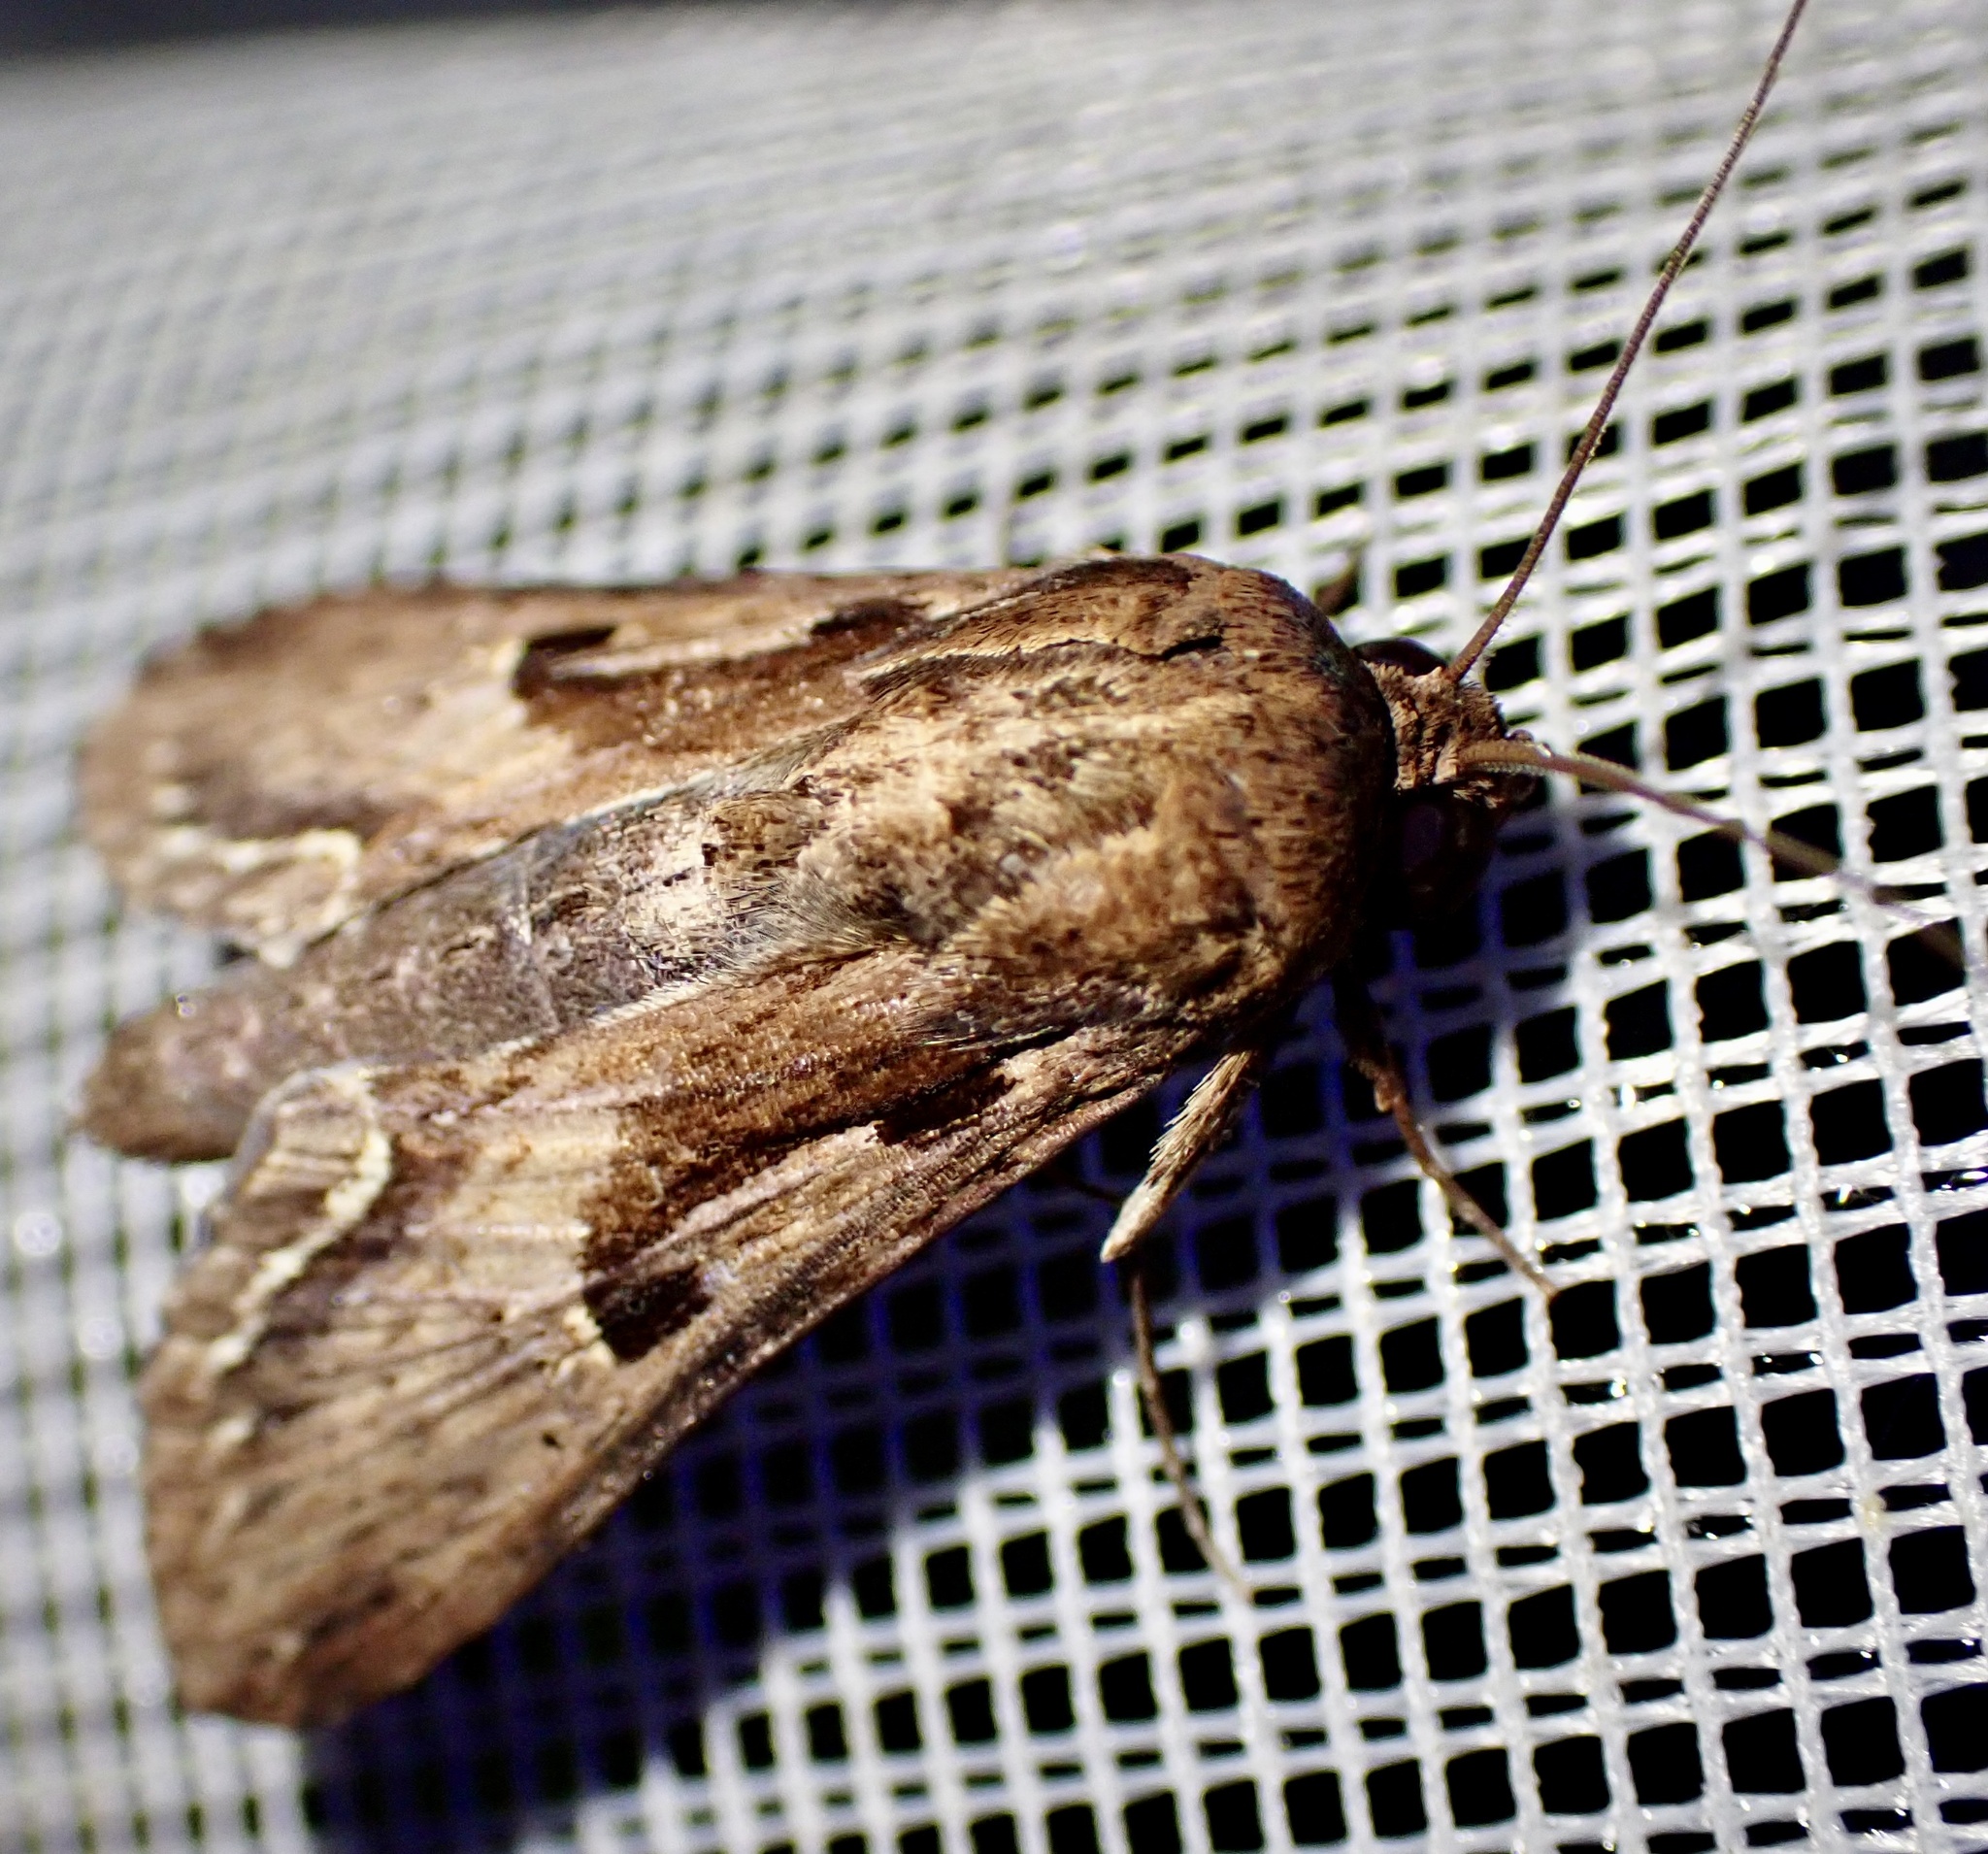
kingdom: Animalia
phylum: Arthropoda
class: Insecta
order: Lepidoptera
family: Euteliidae
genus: Aegilia
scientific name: Aegilia
